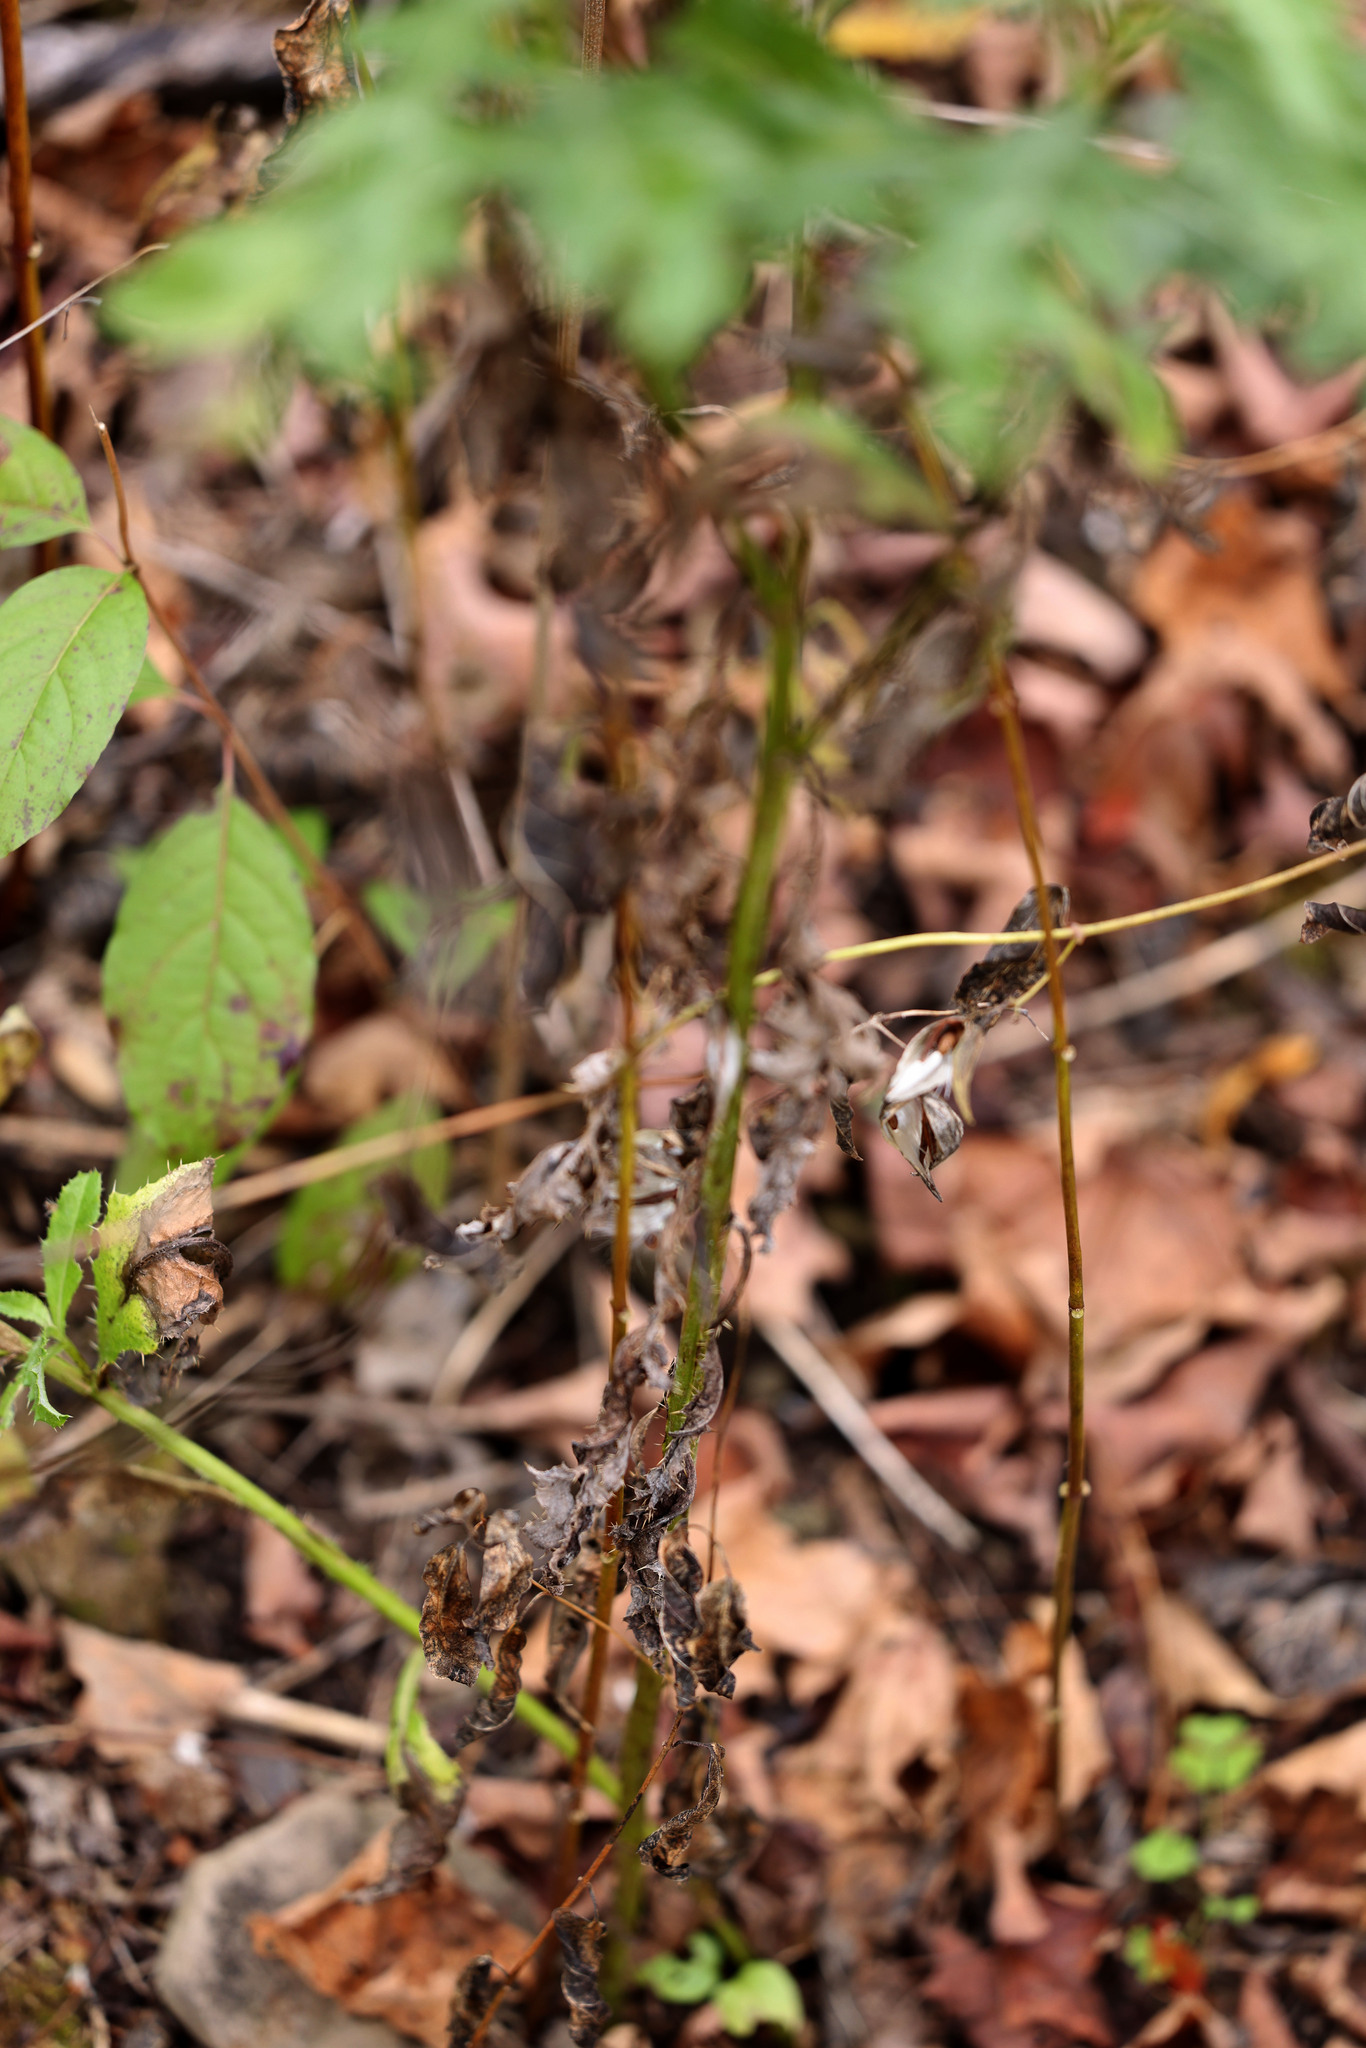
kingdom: Plantae
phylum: Tracheophyta
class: Magnoliopsida
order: Asterales
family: Asteraceae
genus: Cirsium
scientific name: Cirsium arvense
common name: Creeping thistle
